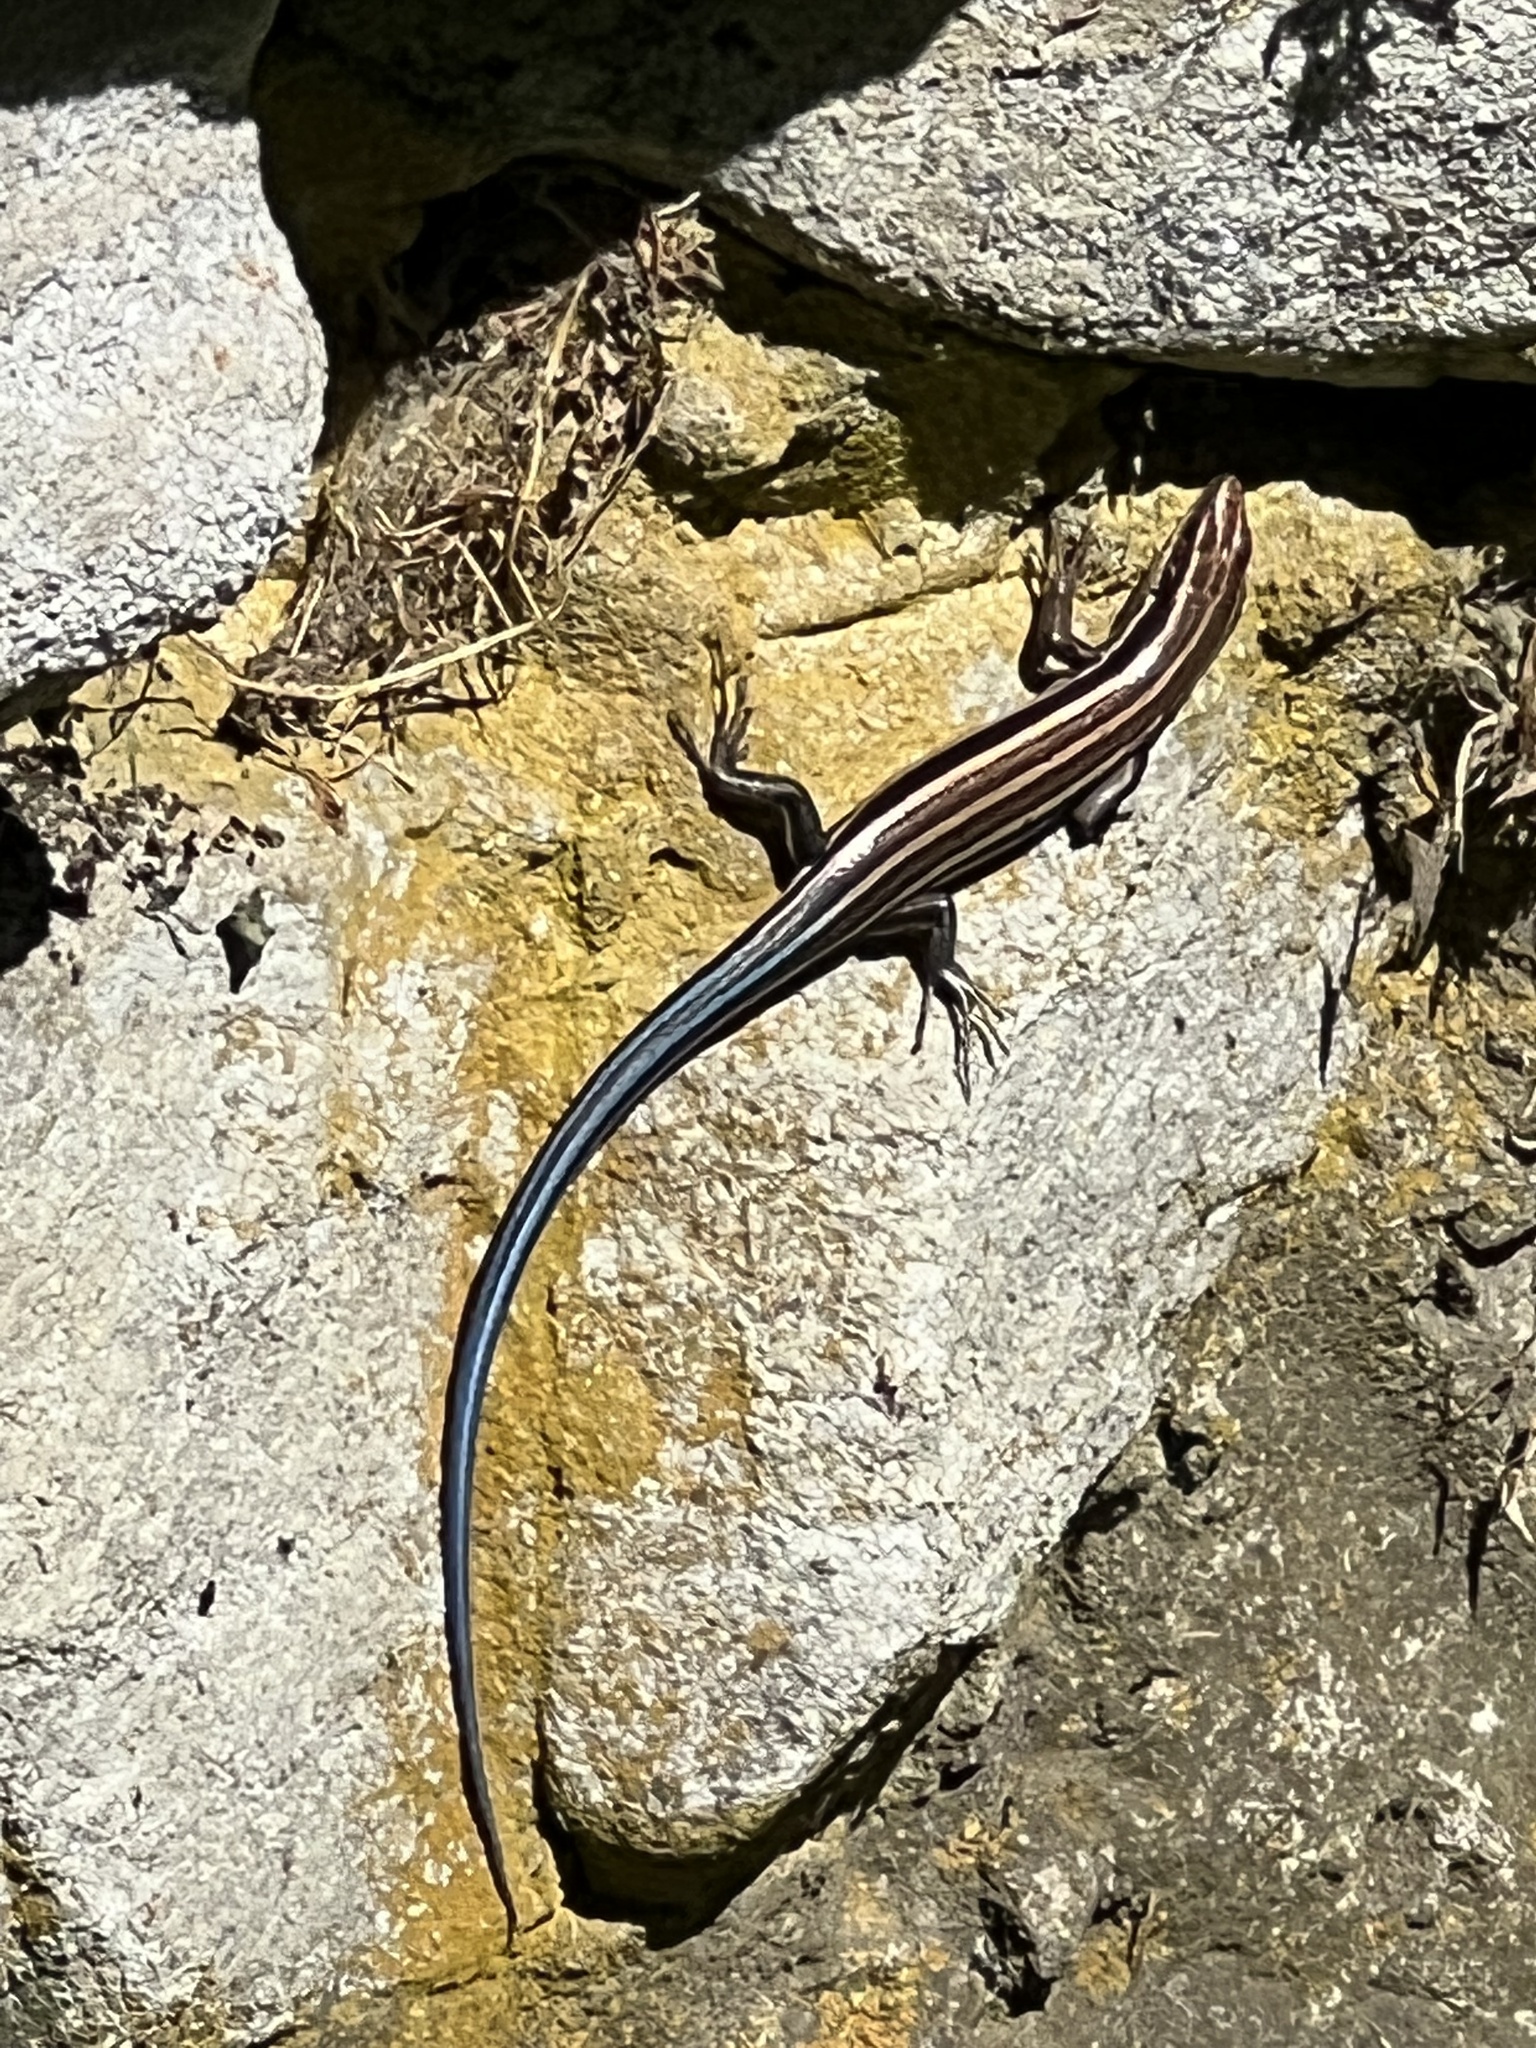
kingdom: Animalia
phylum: Chordata
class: Squamata
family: Scincidae
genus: Plestiodon
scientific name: Plestiodon fasciatus
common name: Five-lined skink
